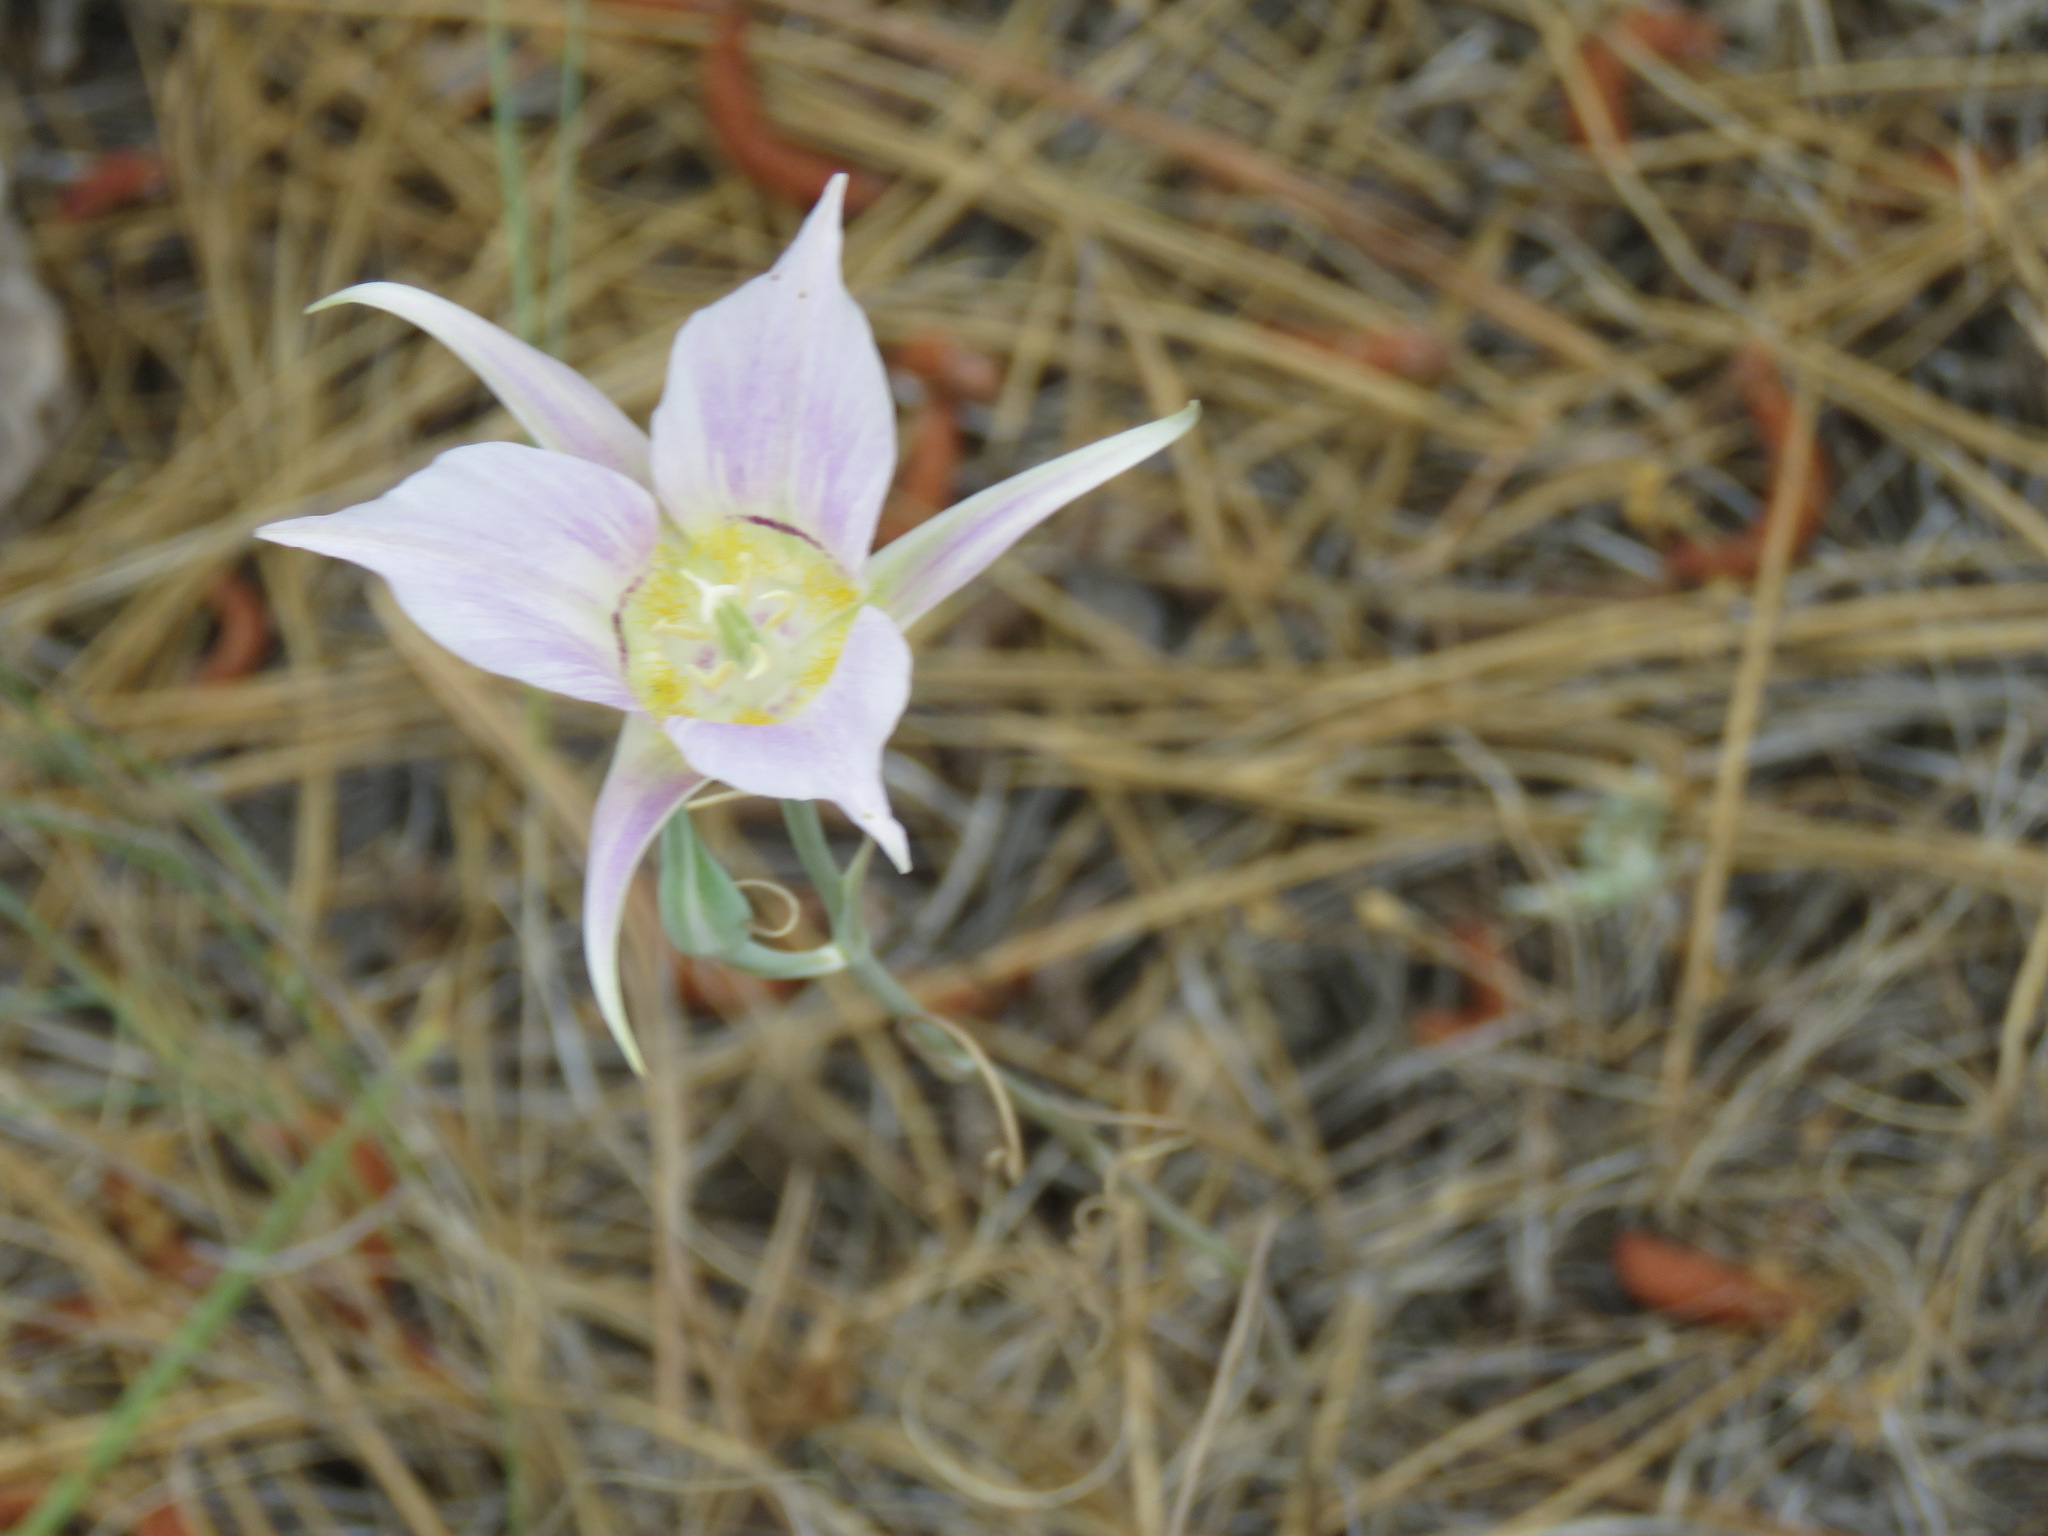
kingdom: Plantae
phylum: Tracheophyta
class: Liliopsida
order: Liliales
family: Liliaceae
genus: Calochortus
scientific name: Calochortus macrocarpus
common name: Green-band mariposa lily
